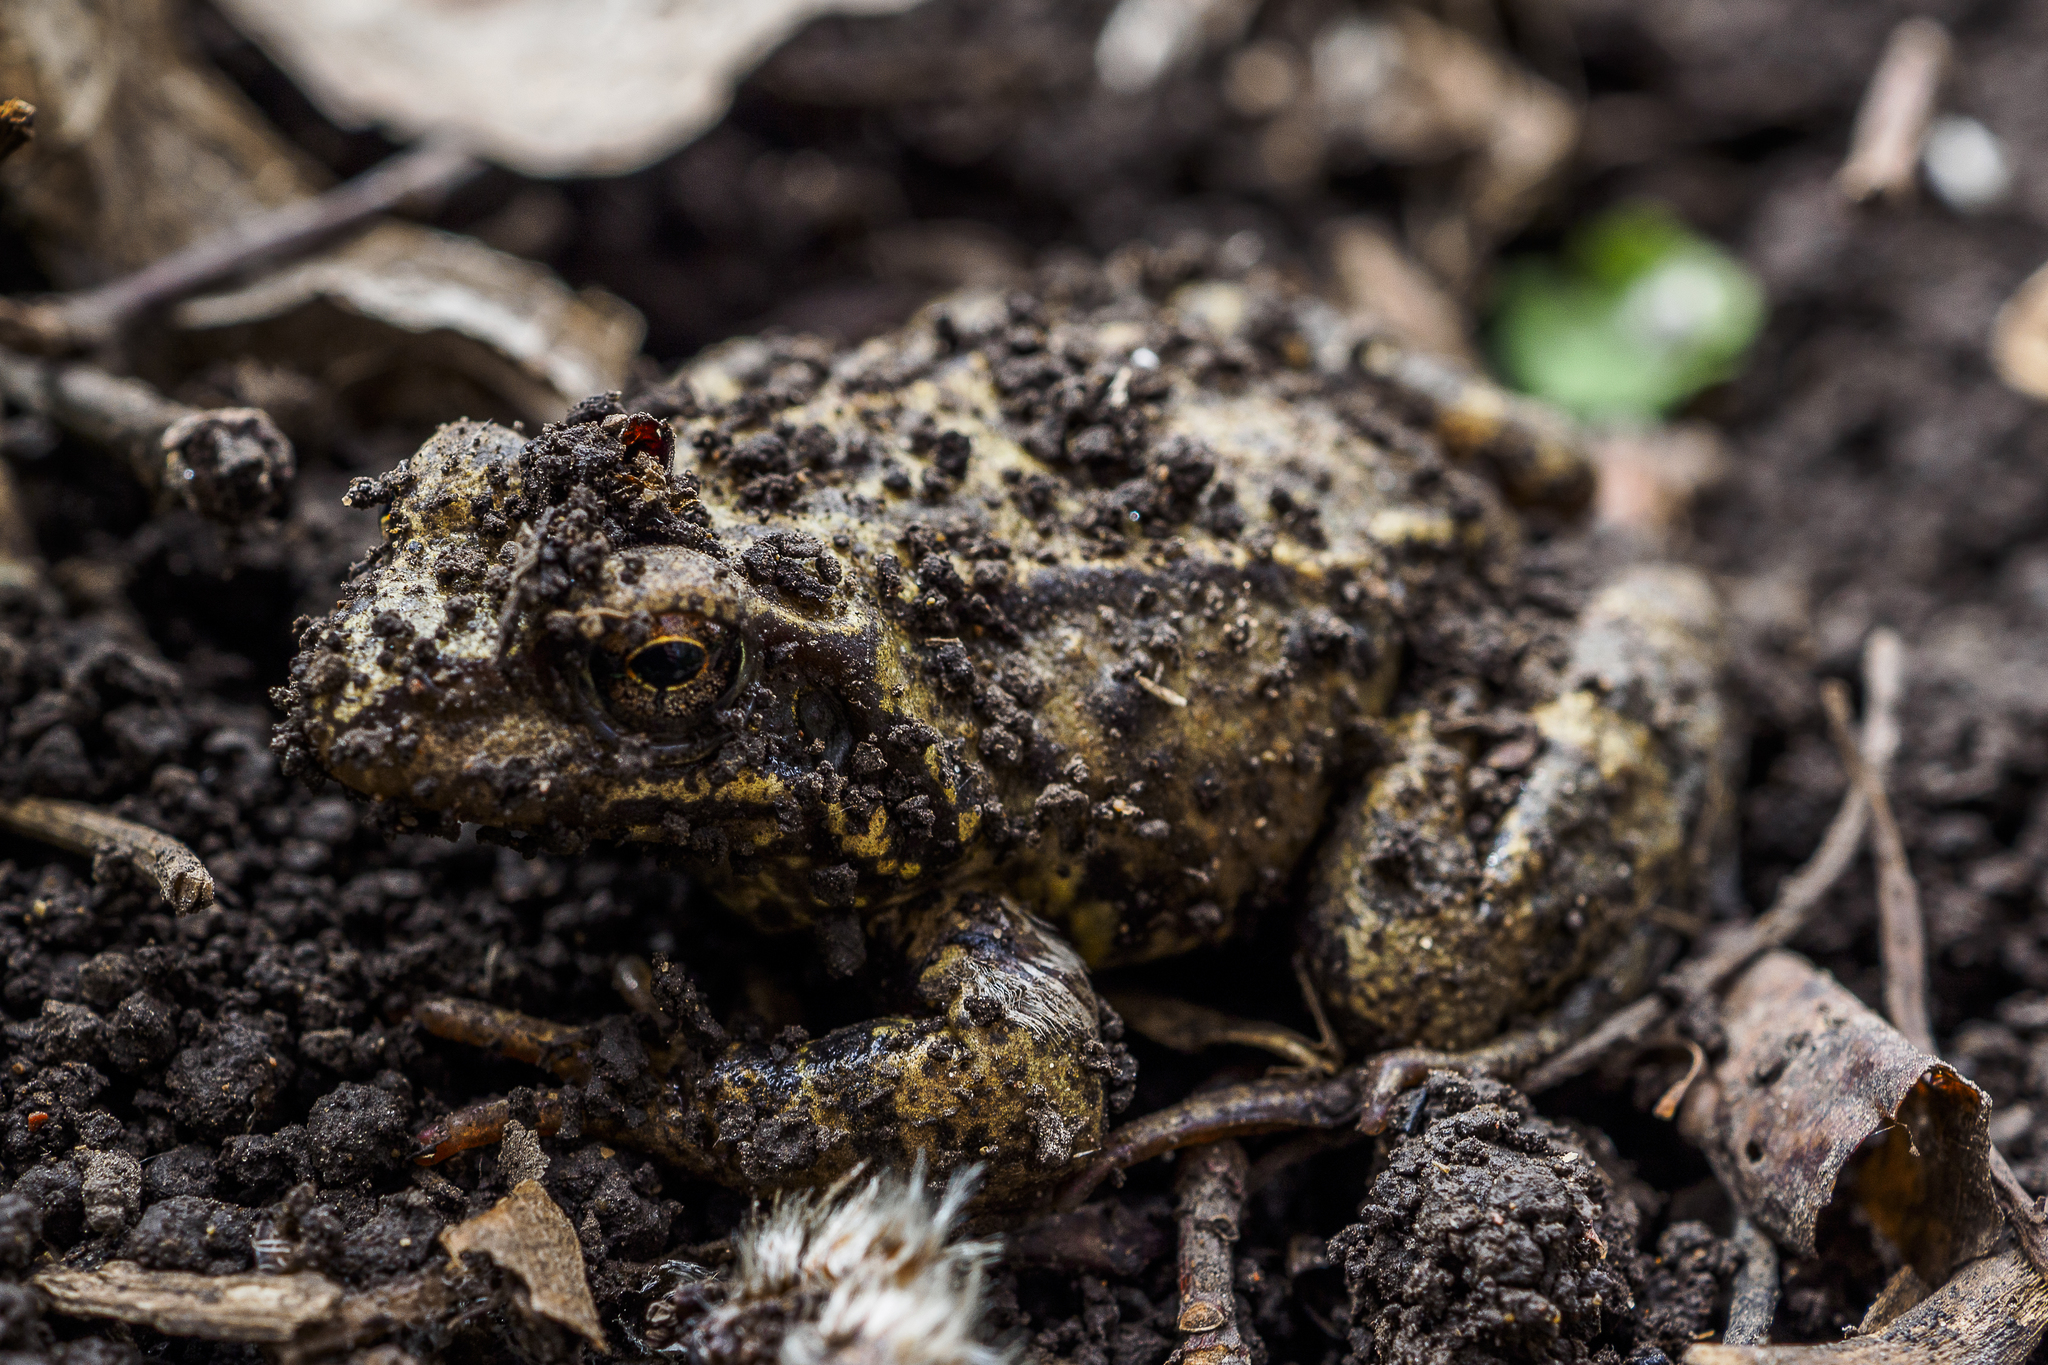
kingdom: Animalia
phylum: Chordata
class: Amphibia
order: Anura
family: Ranidae
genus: Rana
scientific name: Rana temporaria
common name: Common frog
